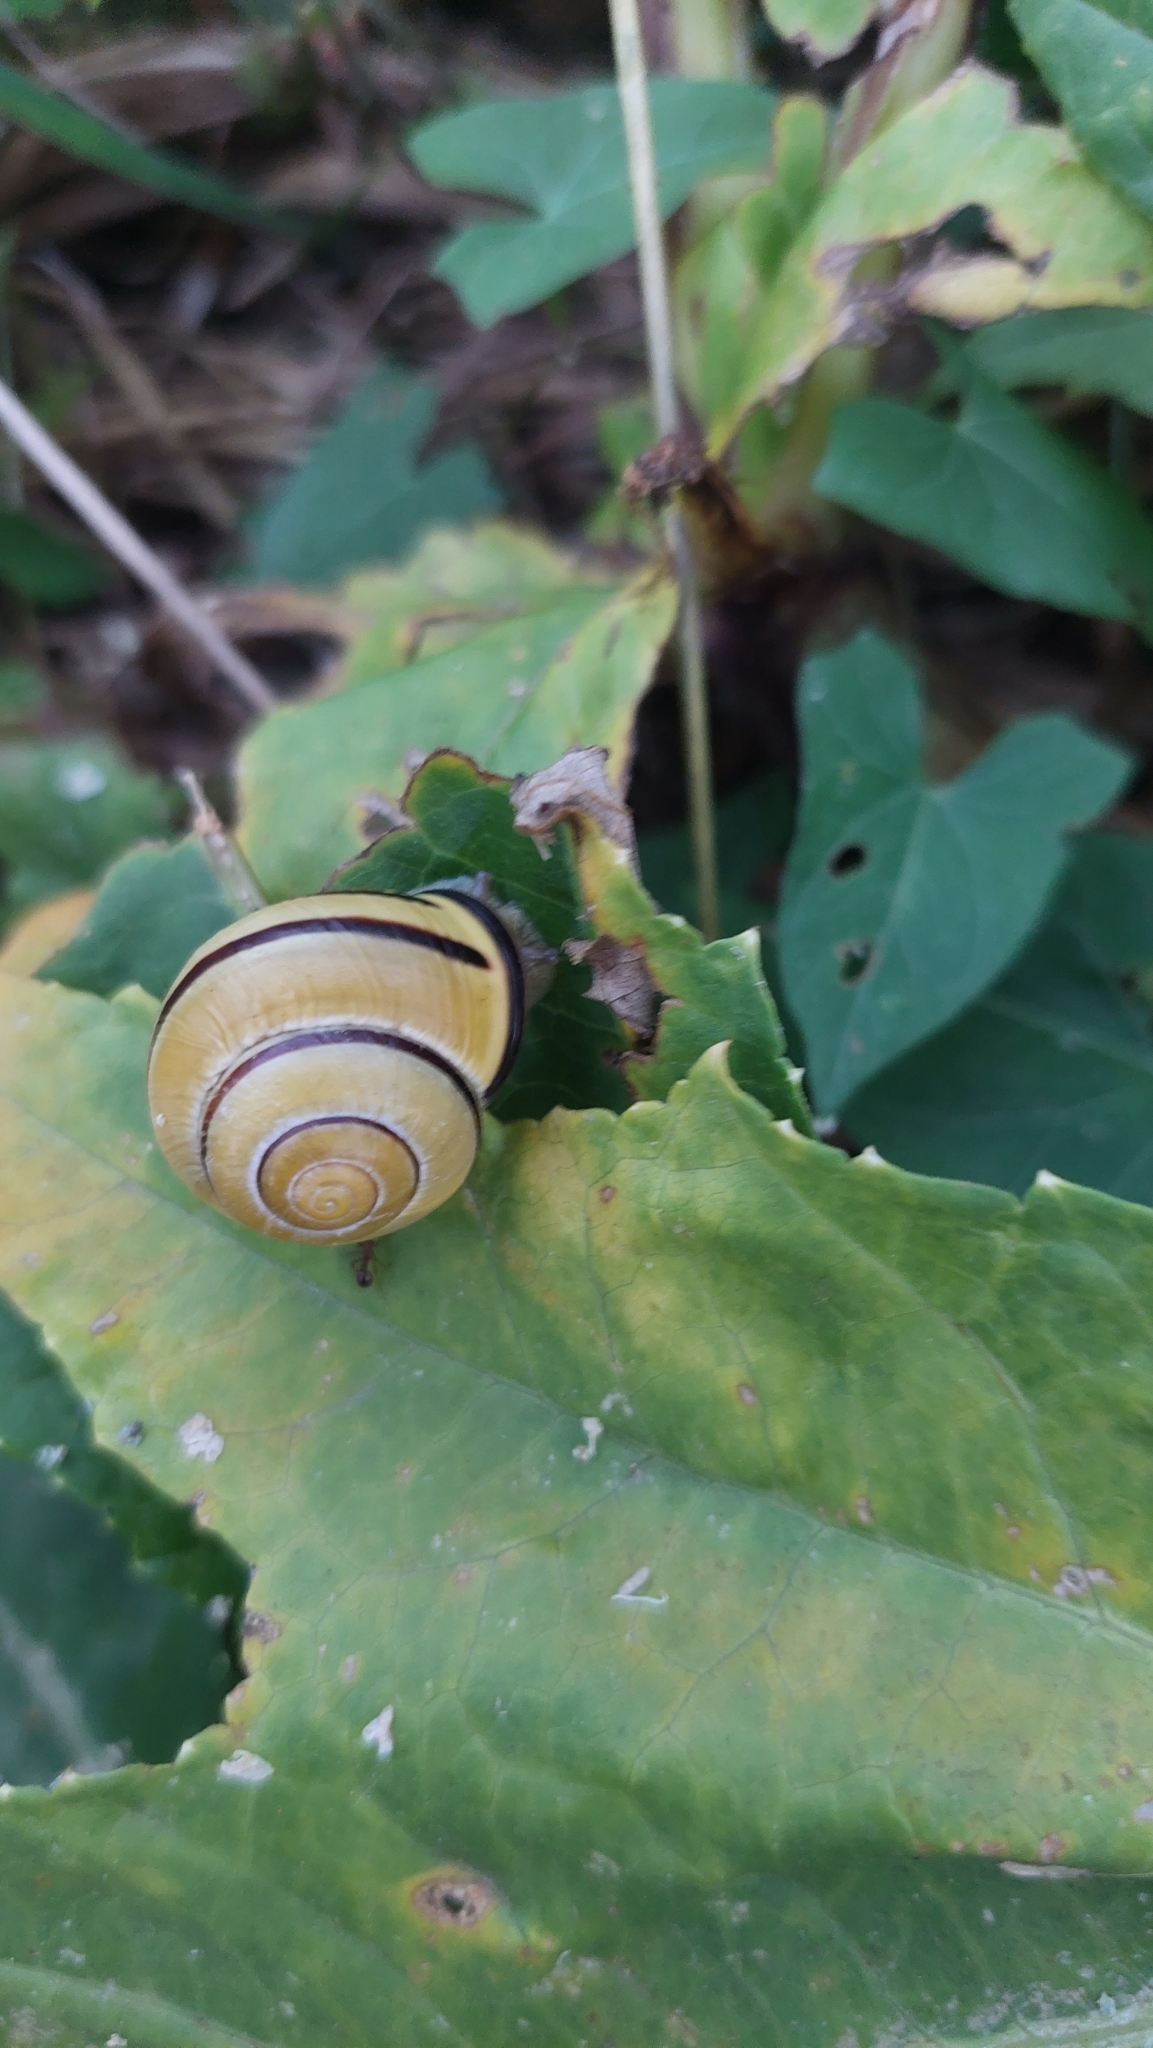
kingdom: Animalia
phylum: Mollusca
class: Gastropoda
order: Stylommatophora
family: Helicidae
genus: Cepaea
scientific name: Cepaea nemoralis
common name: Grovesnail
